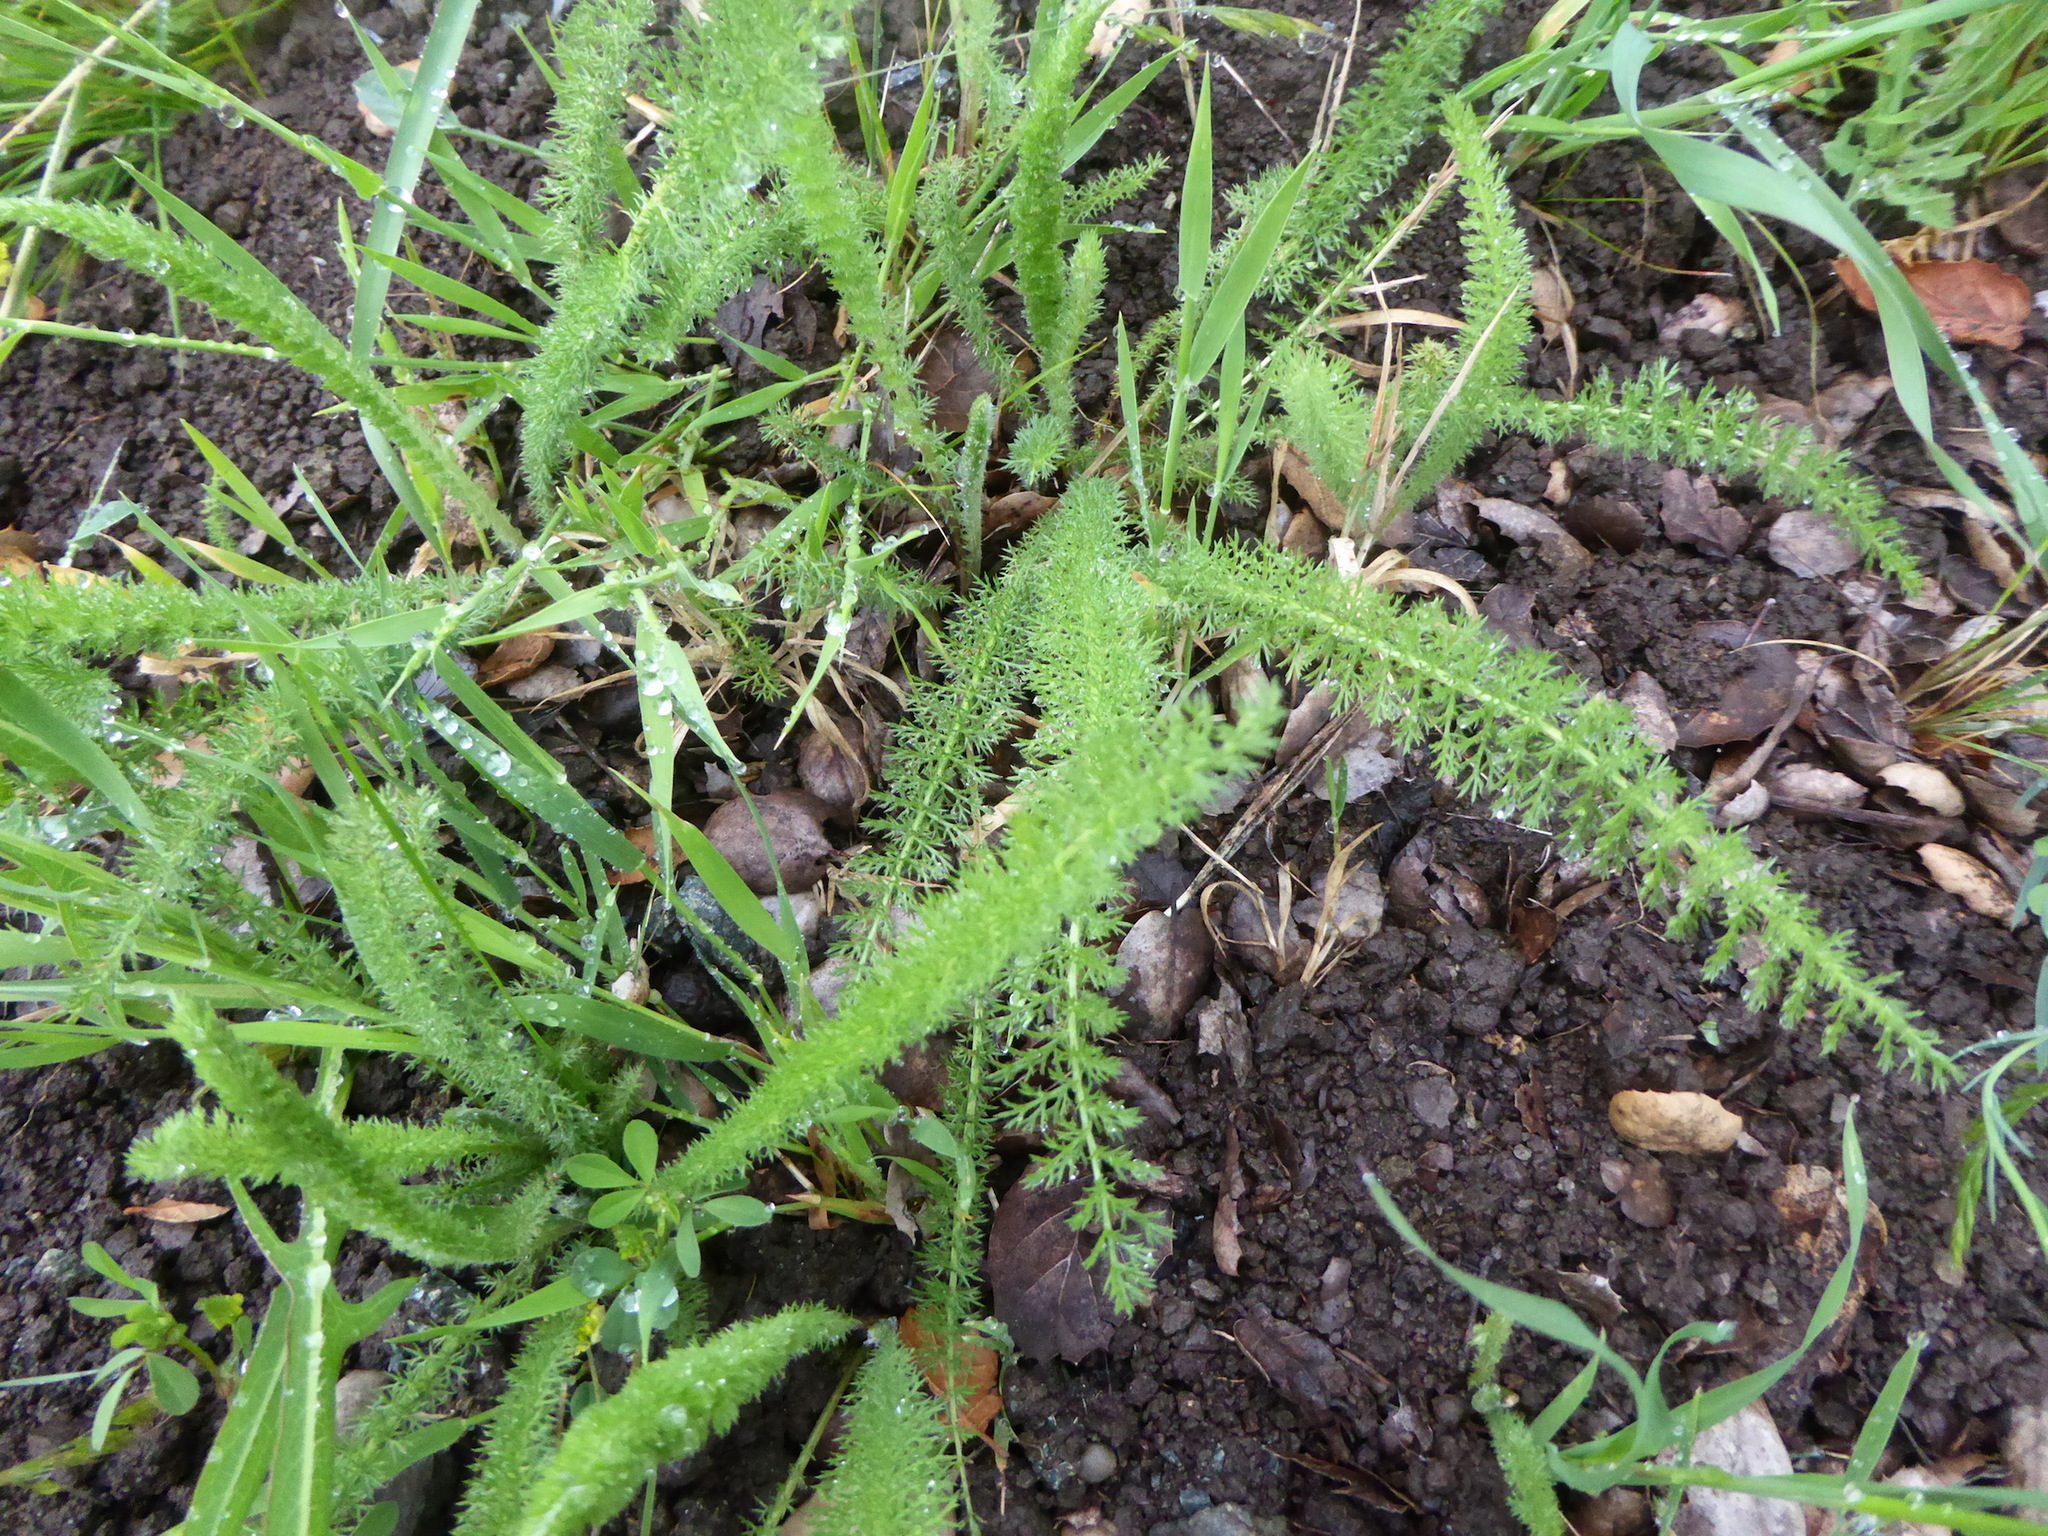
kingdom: Plantae
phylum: Tracheophyta
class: Magnoliopsida
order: Asterales
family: Asteraceae
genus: Achillea
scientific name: Achillea millefolium
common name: Yarrow
